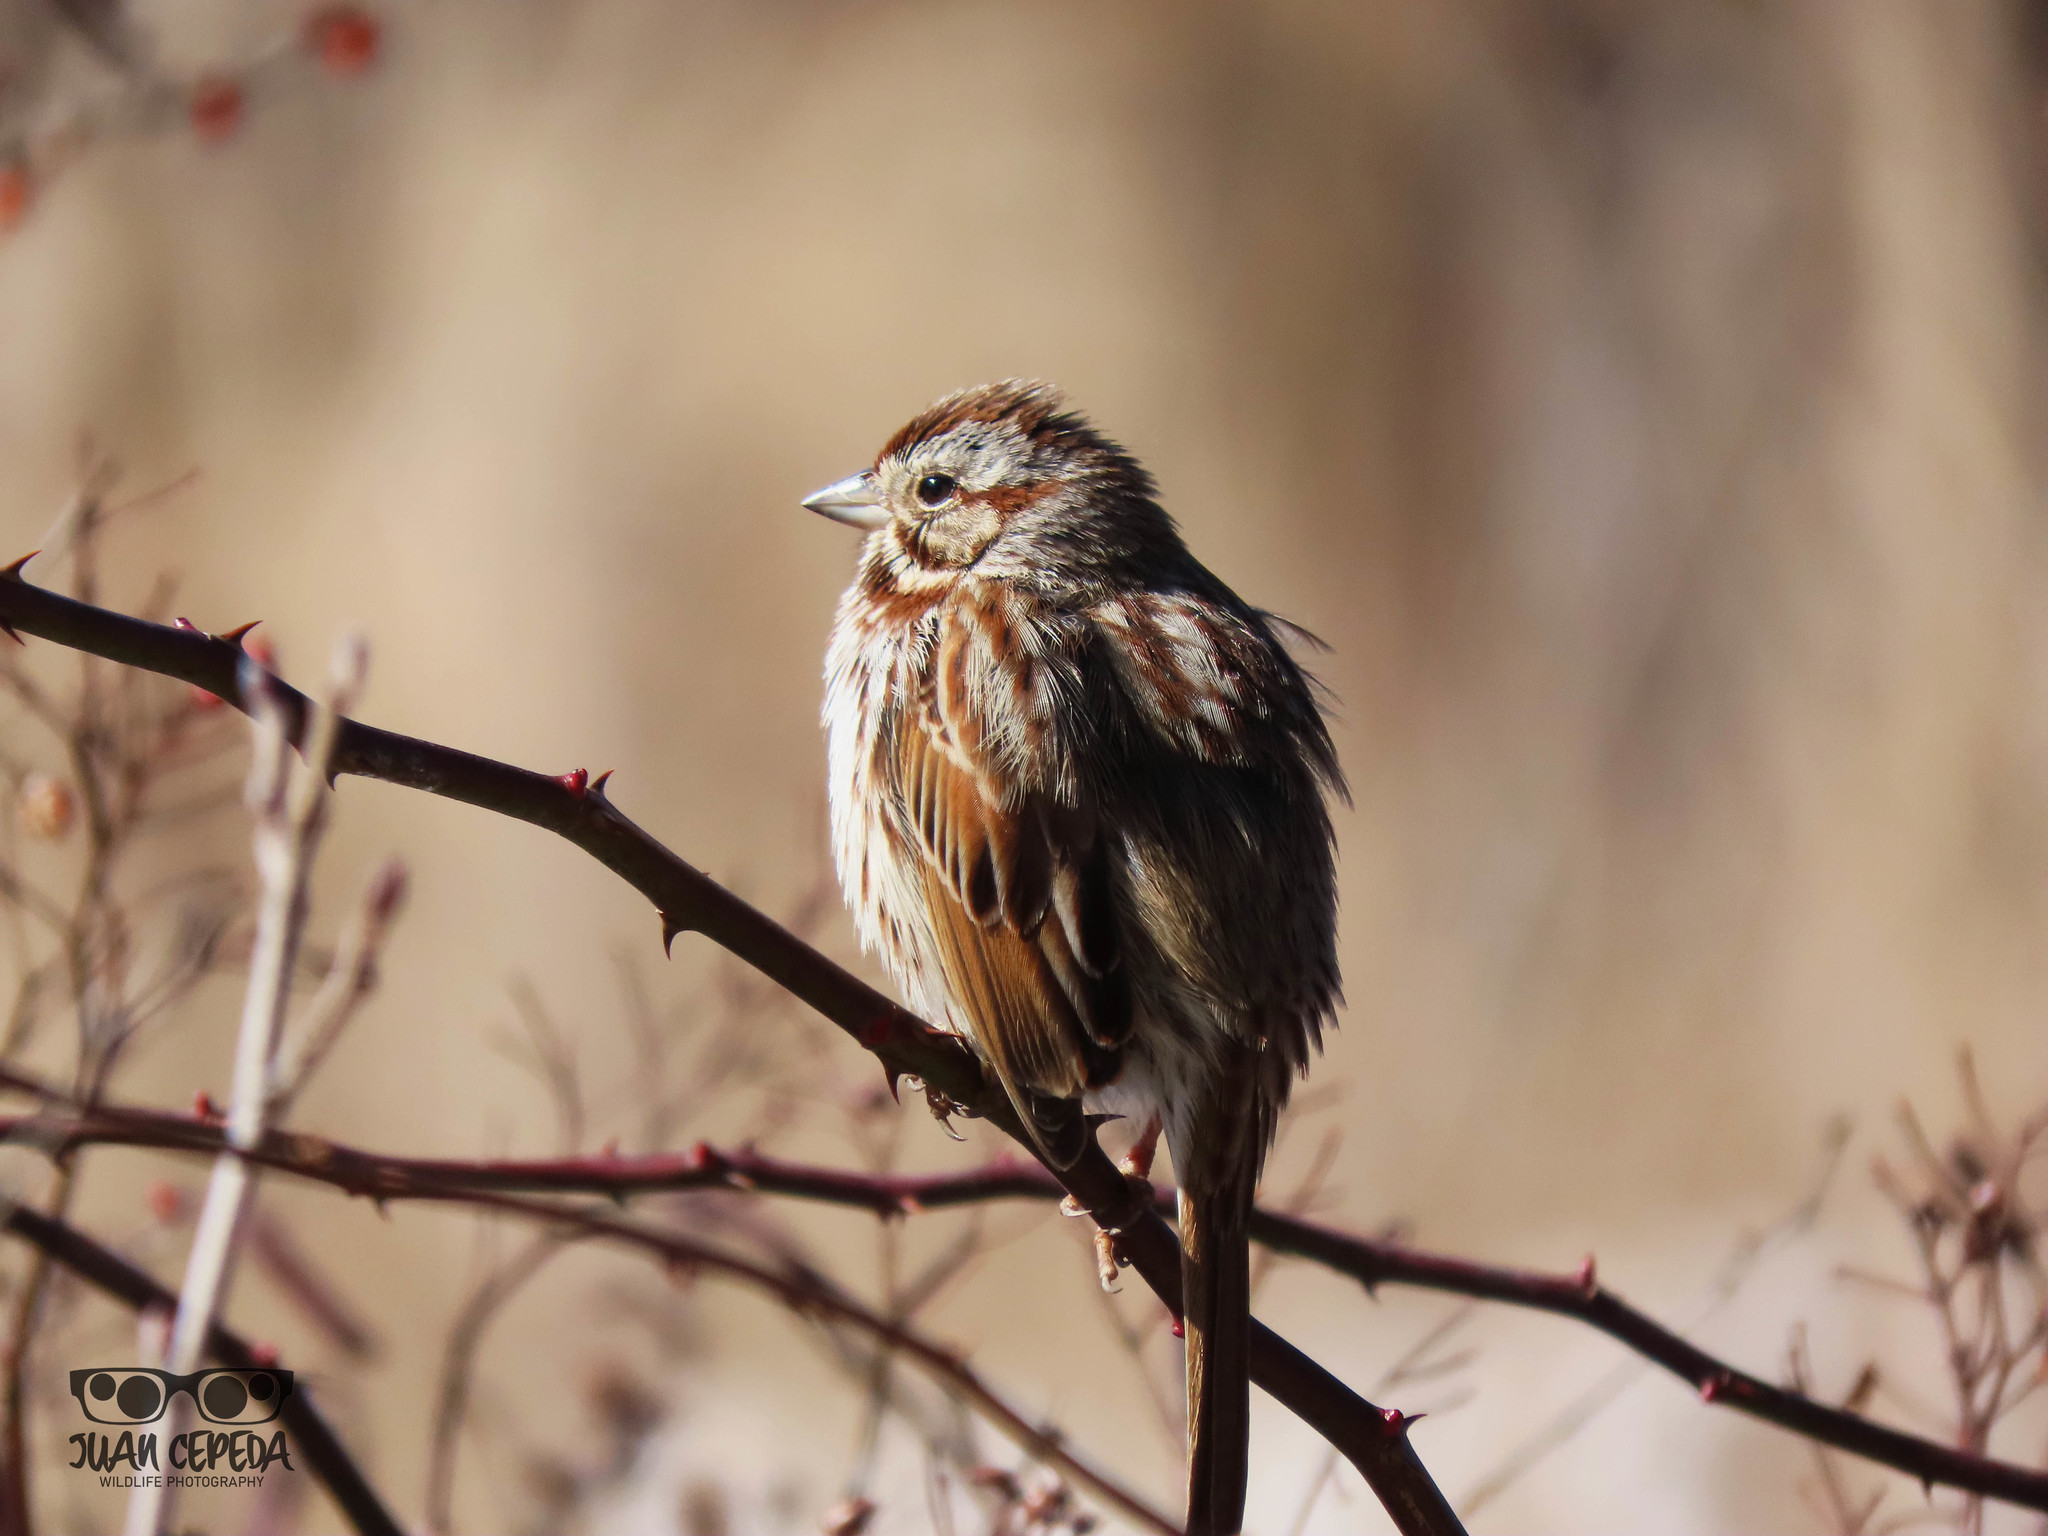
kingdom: Animalia
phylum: Chordata
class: Aves
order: Passeriformes
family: Passerellidae
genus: Melospiza
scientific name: Melospiza melodia
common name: Song sparrow
